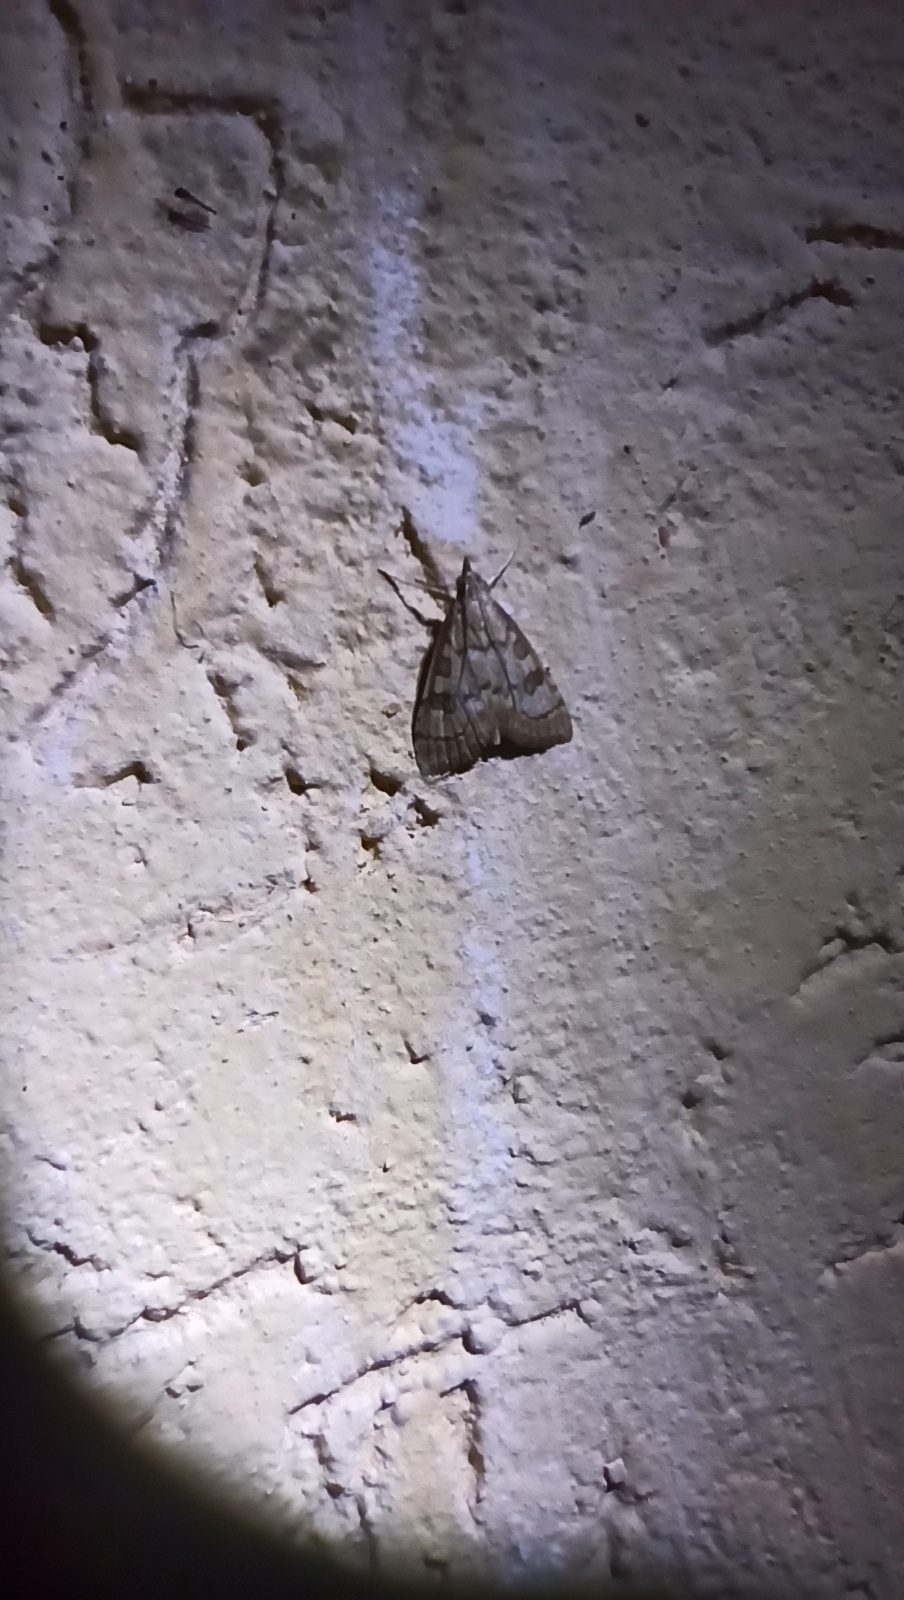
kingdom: Animalia
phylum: Arthropoda
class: Insecta
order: Lepidoptera
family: Crambidae
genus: Udea
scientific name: Udea fulvalis
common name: Fulvous pearl
